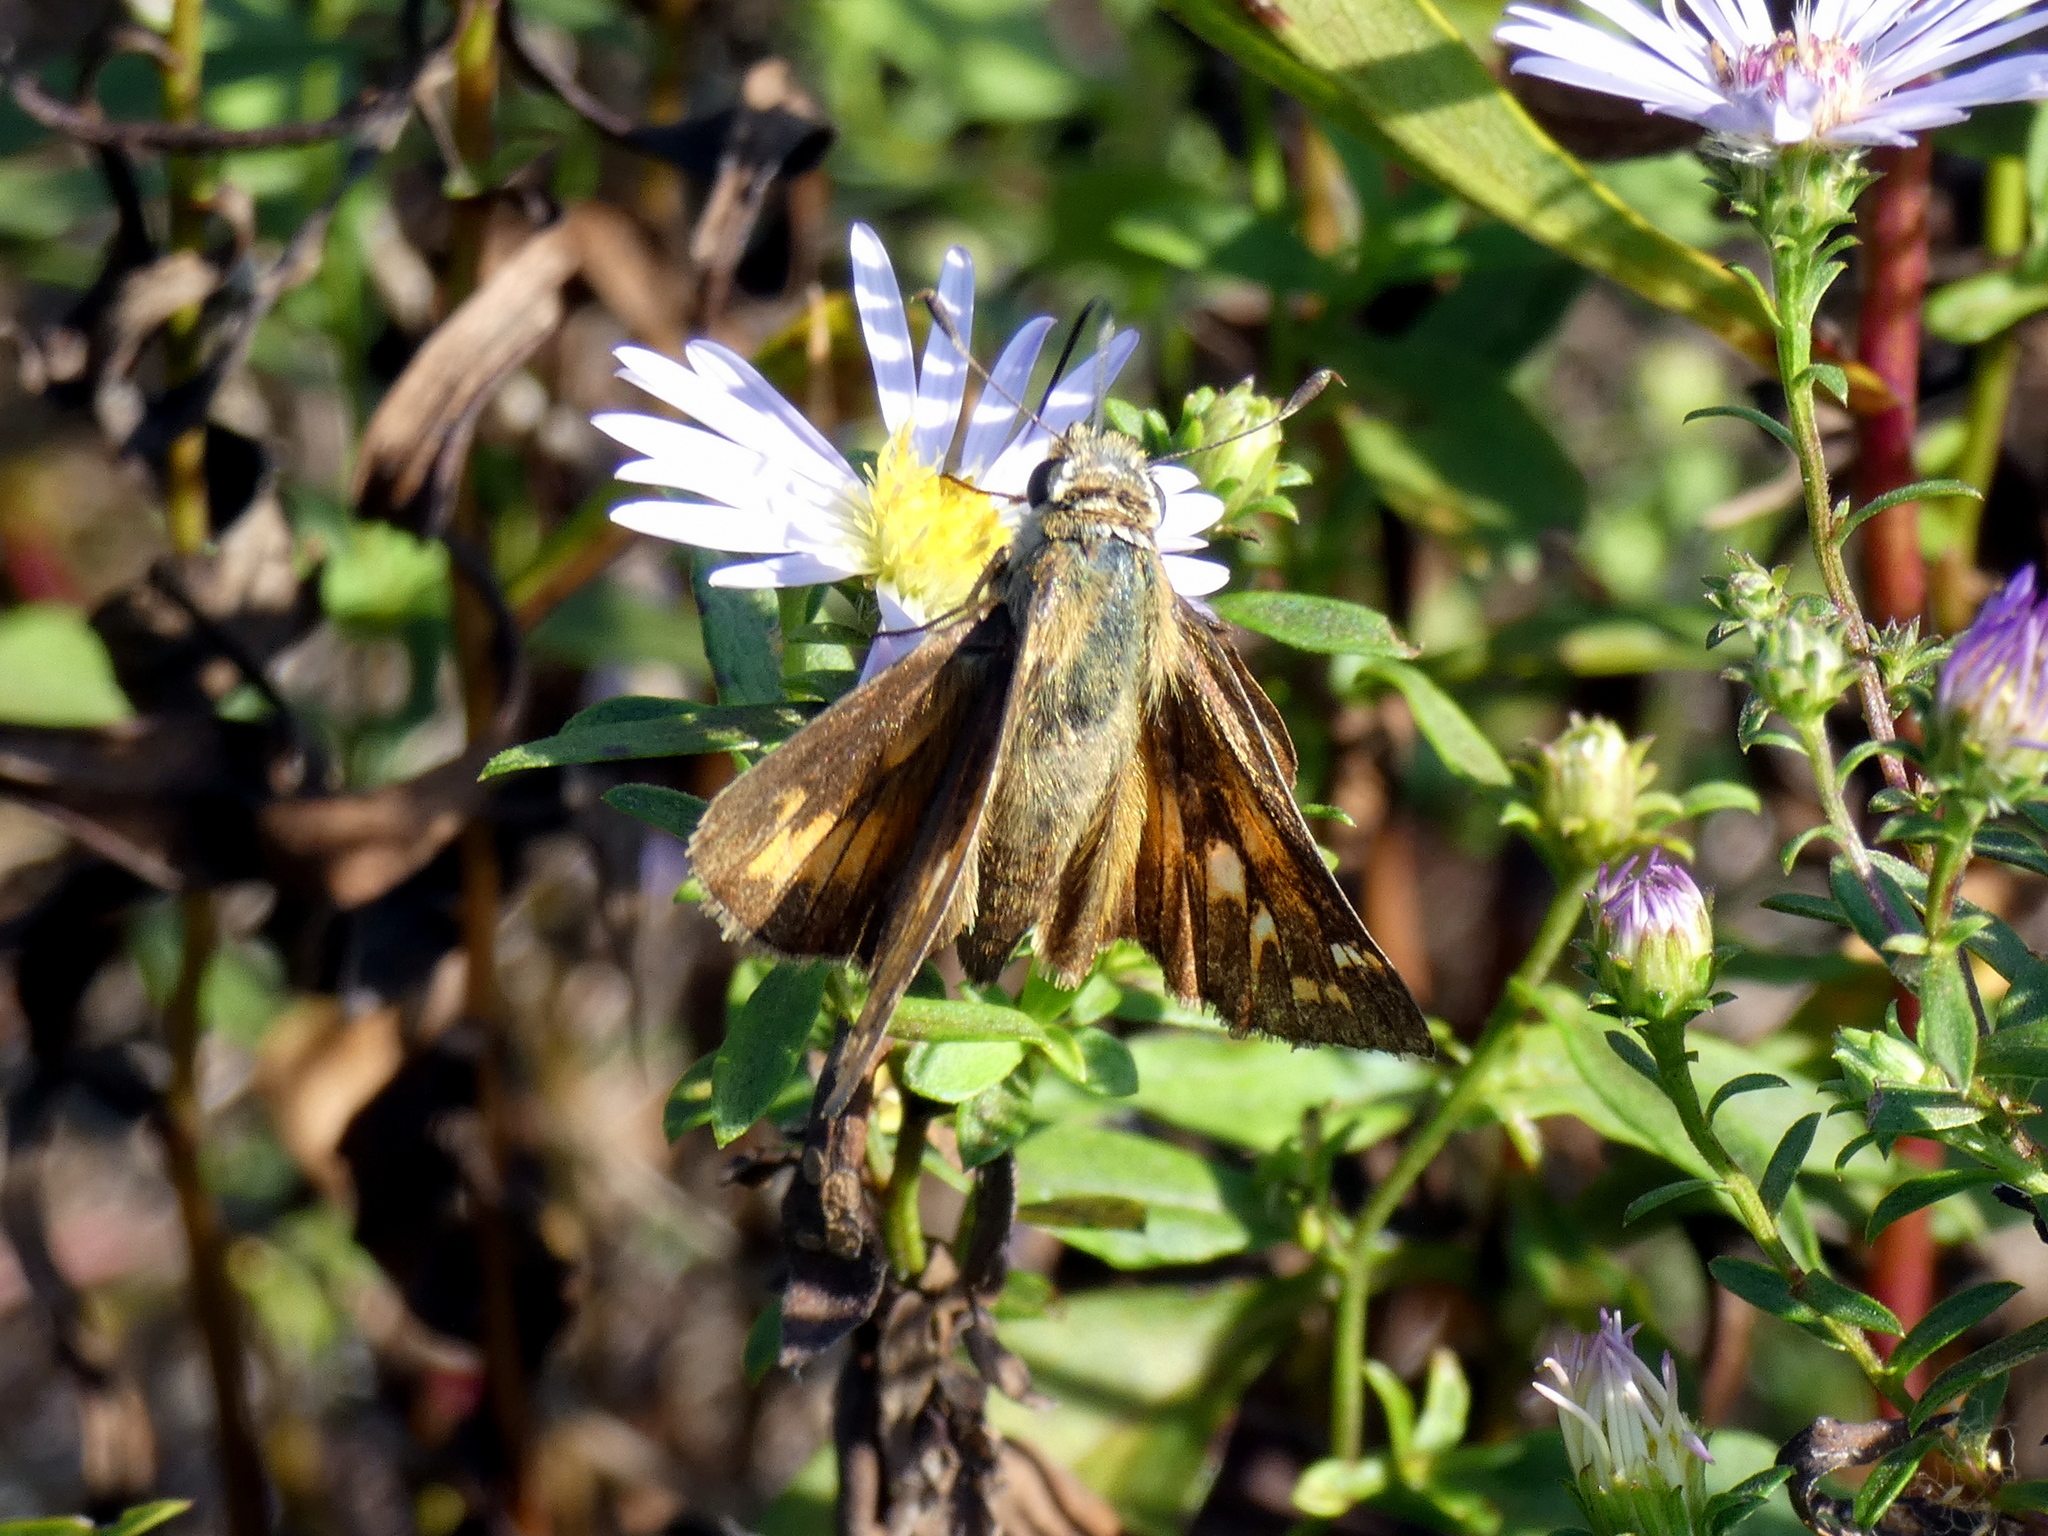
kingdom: Animalia
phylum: Arthropoda
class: Insecta
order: Lepidoptera
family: Hesperiidae
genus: Atalopedes
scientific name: Atalopedes
